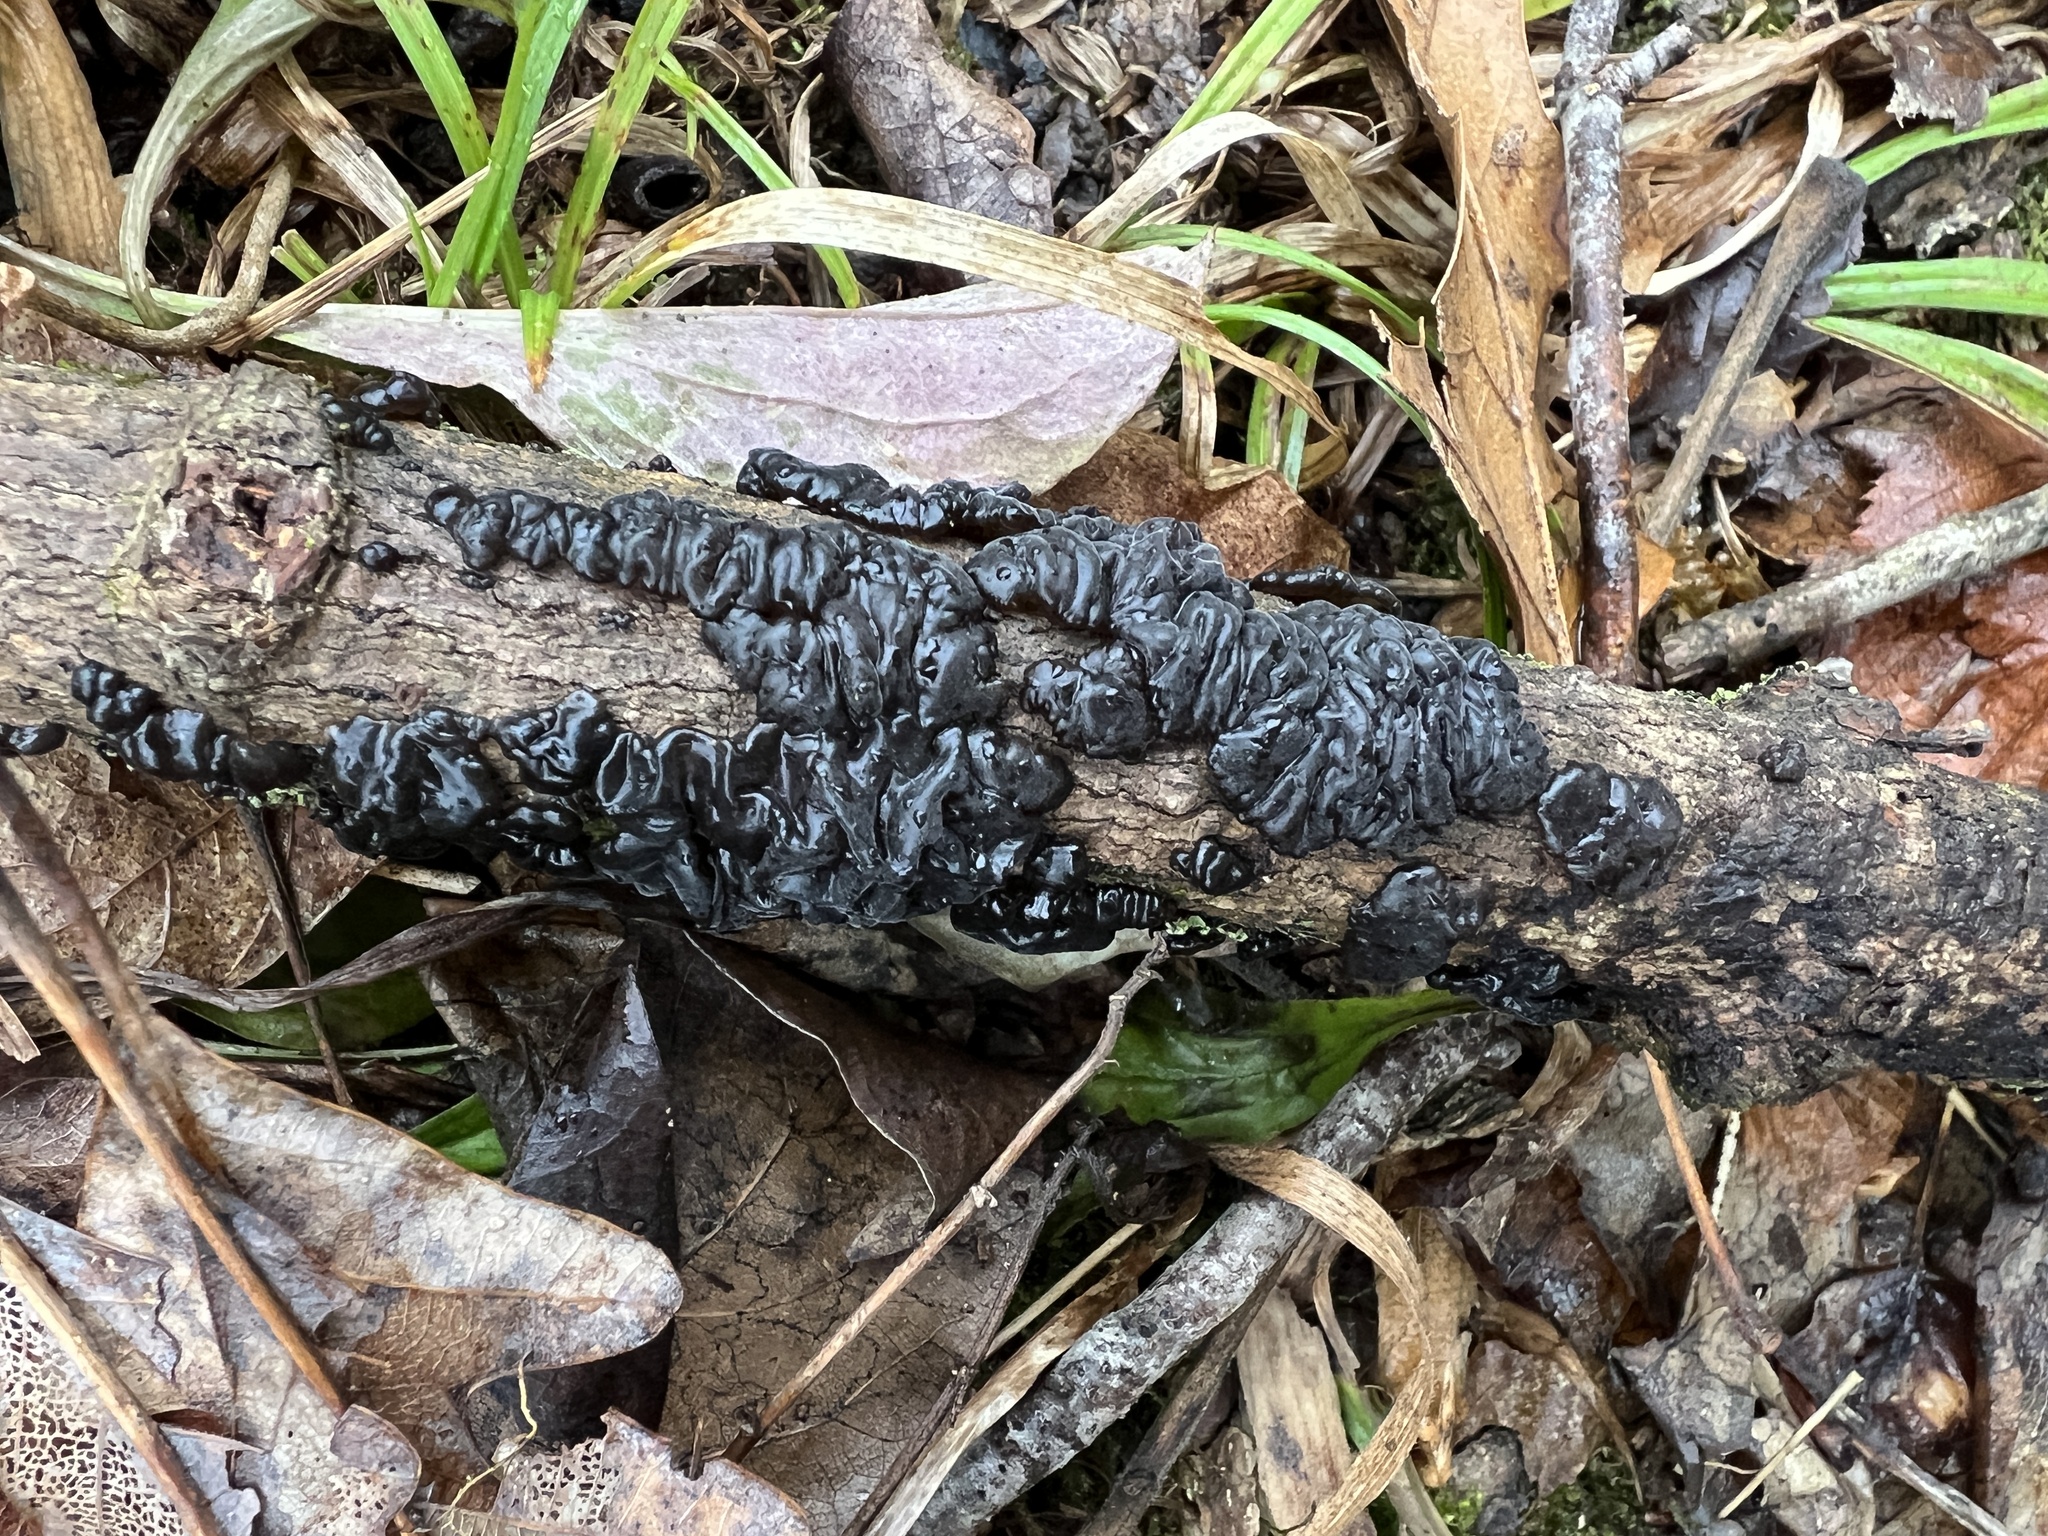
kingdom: Fungi
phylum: Basidiomycota
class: Agaricomycetes
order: Auriculariales
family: Auriculariaceae
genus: Exidia
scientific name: Exidia glandulosa
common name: Witches' butter
